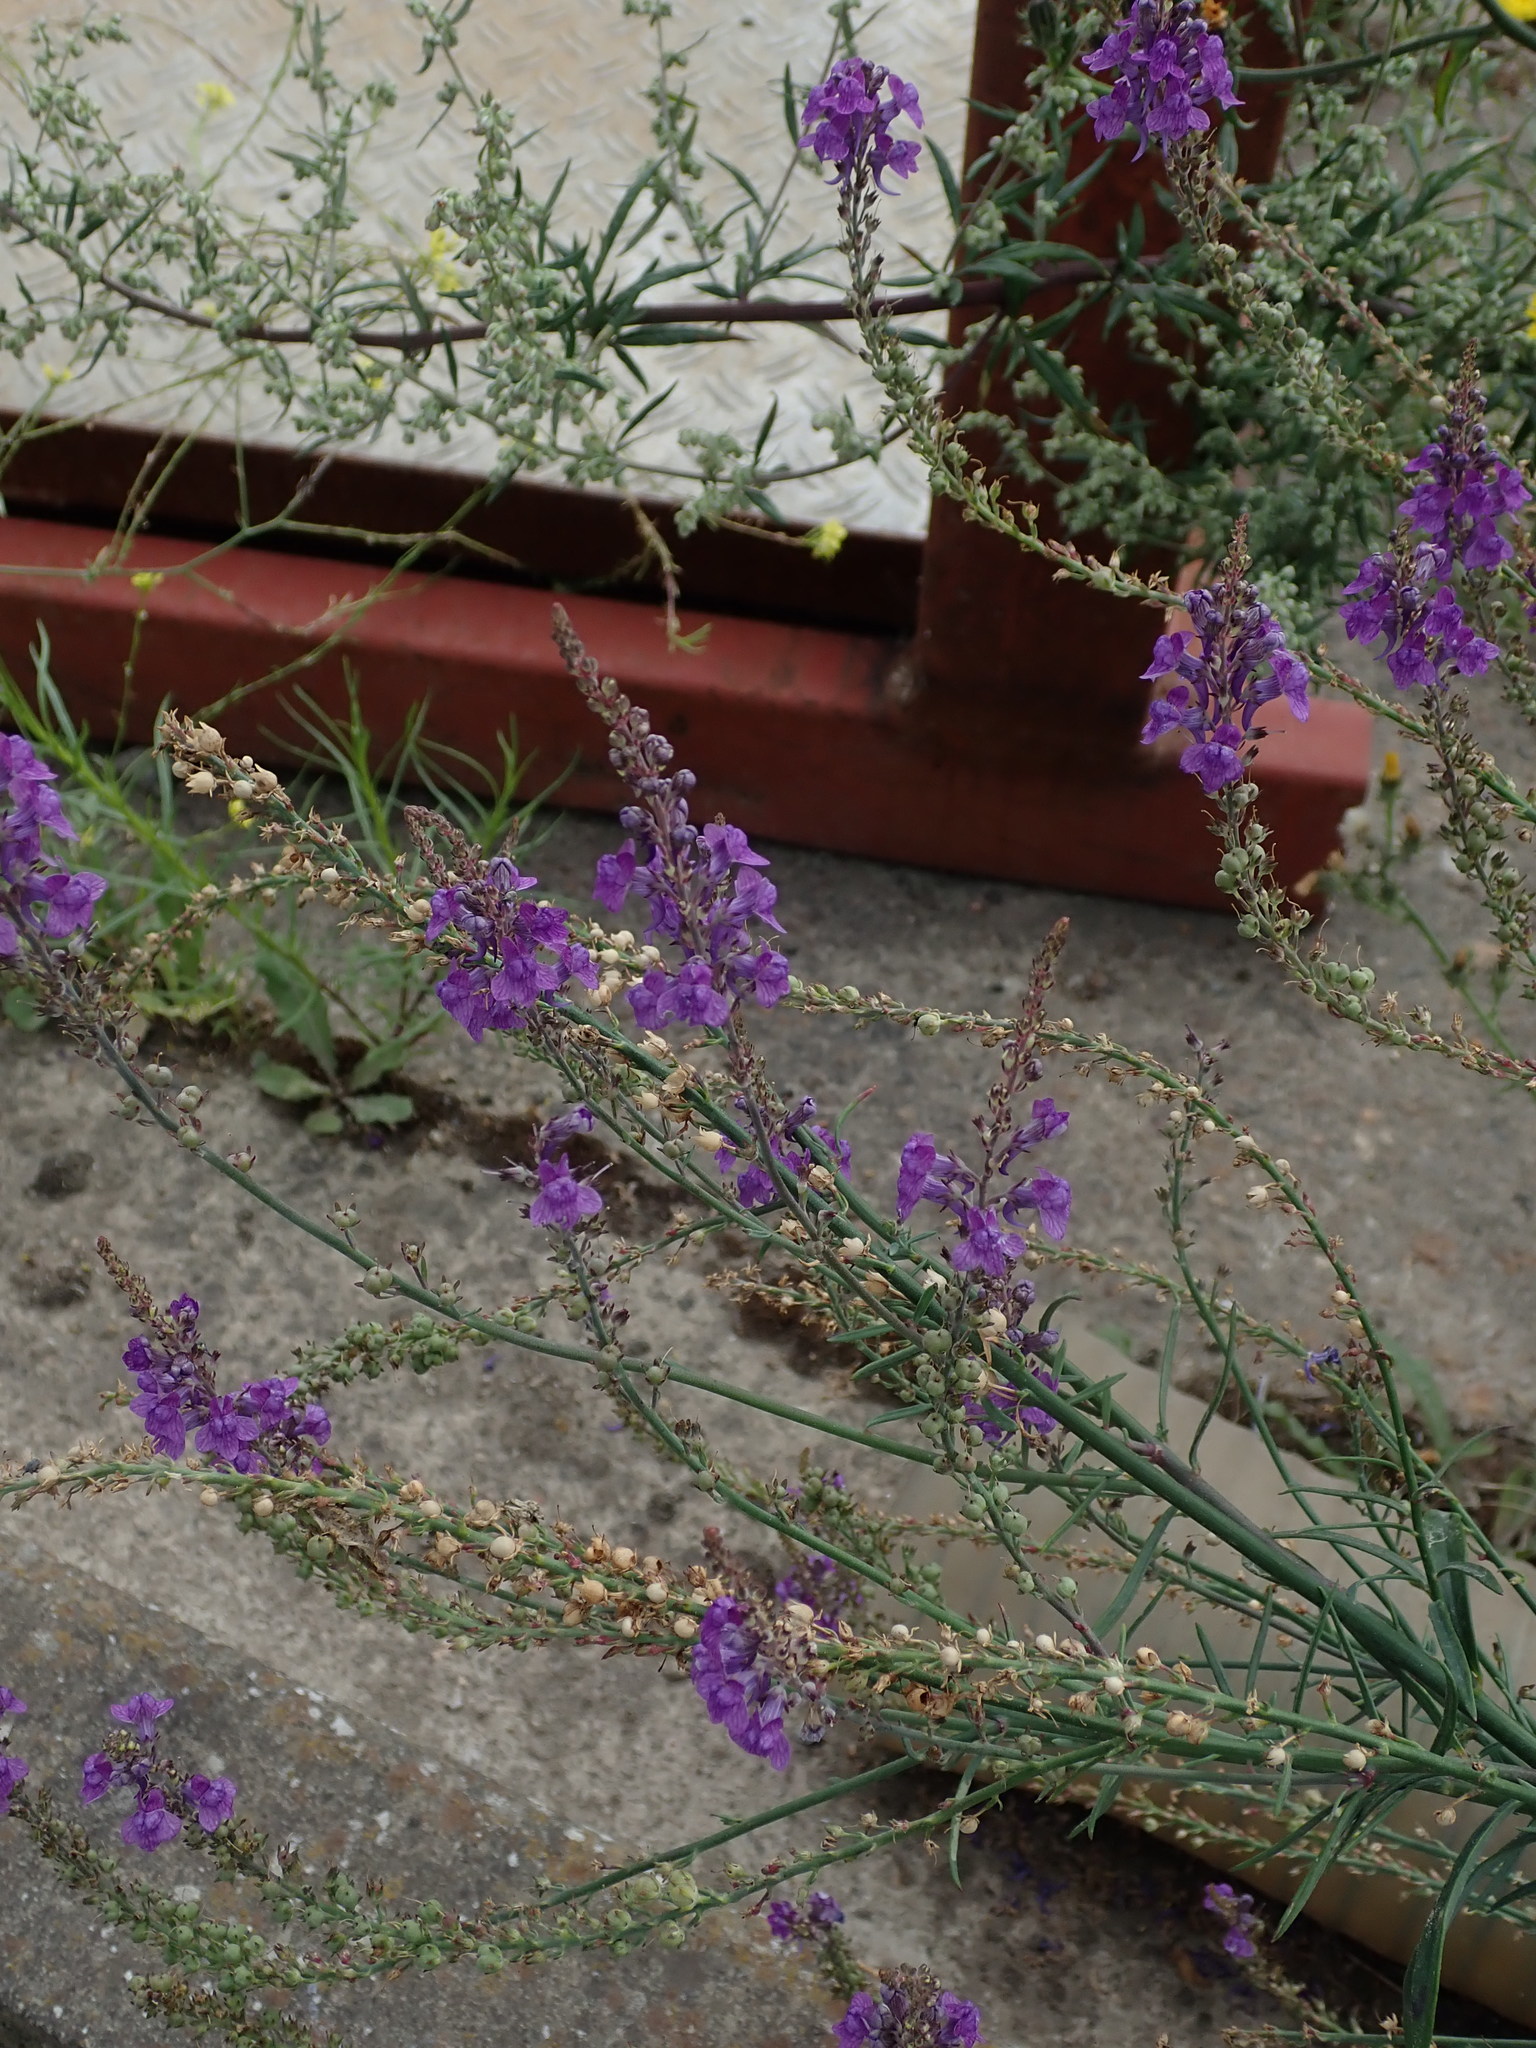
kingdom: Plantae
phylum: Tracheophyta
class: Magnoliopsida
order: Lamiales
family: Plantaginaceae
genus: Linaria
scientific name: Linaria purpurea
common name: Purple toadflax
